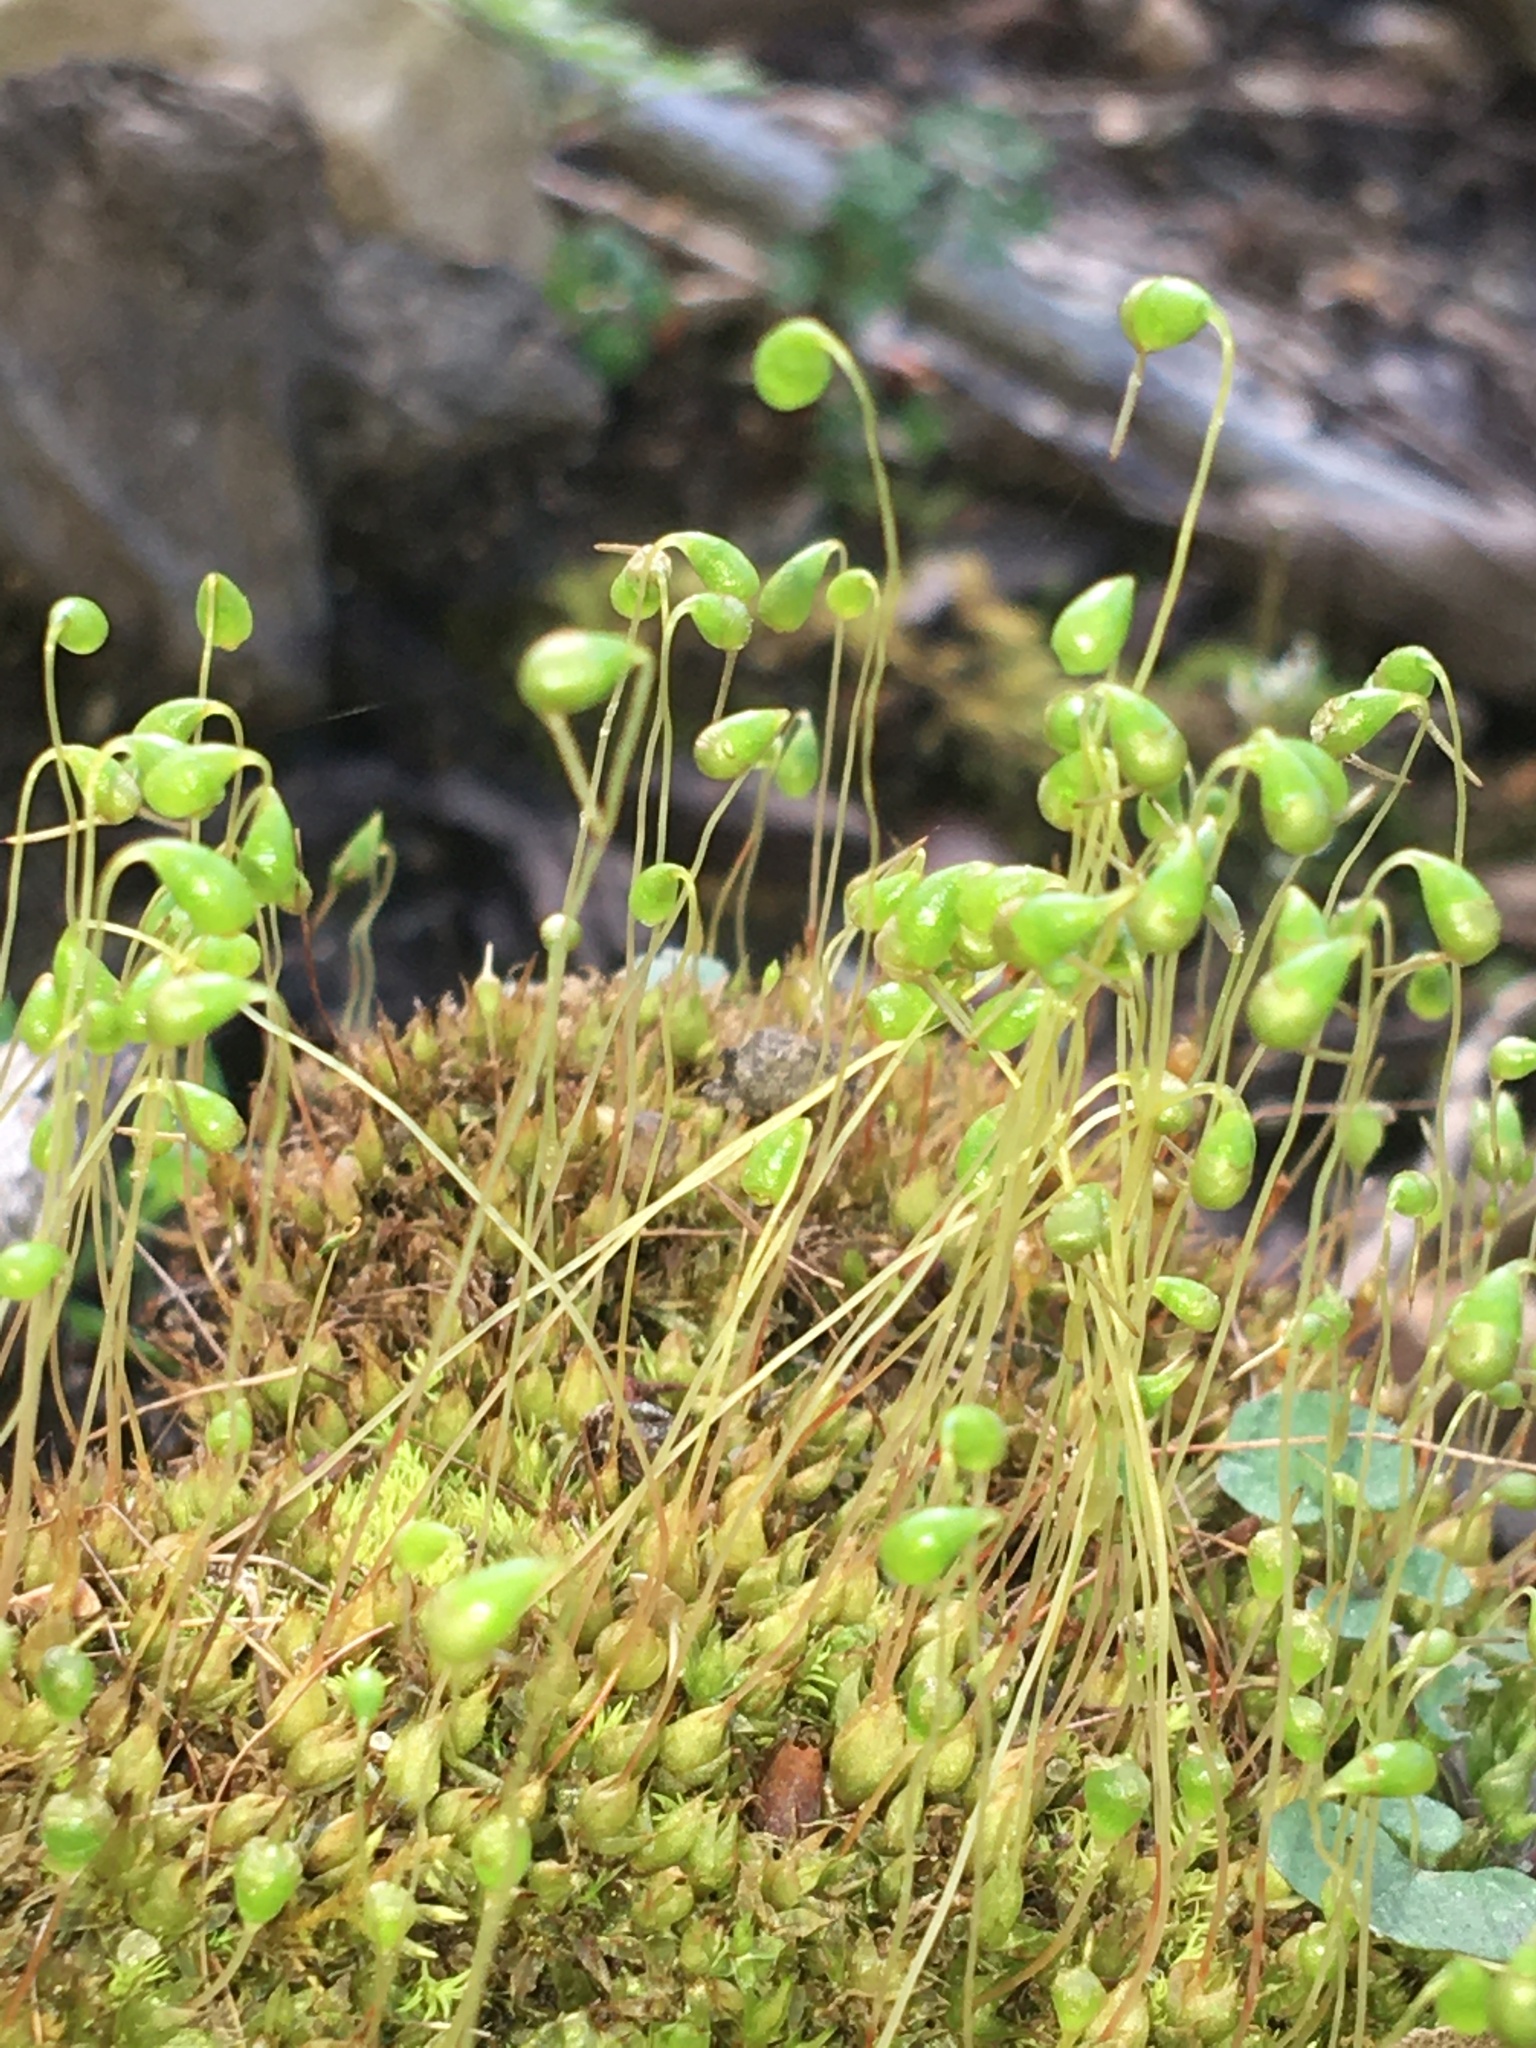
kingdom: Plantae
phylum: Bryophyta
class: Bryopsida
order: Funariales
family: Funariaceae
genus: Funaria
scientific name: Funaria hygrometrica
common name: Common cord moss
